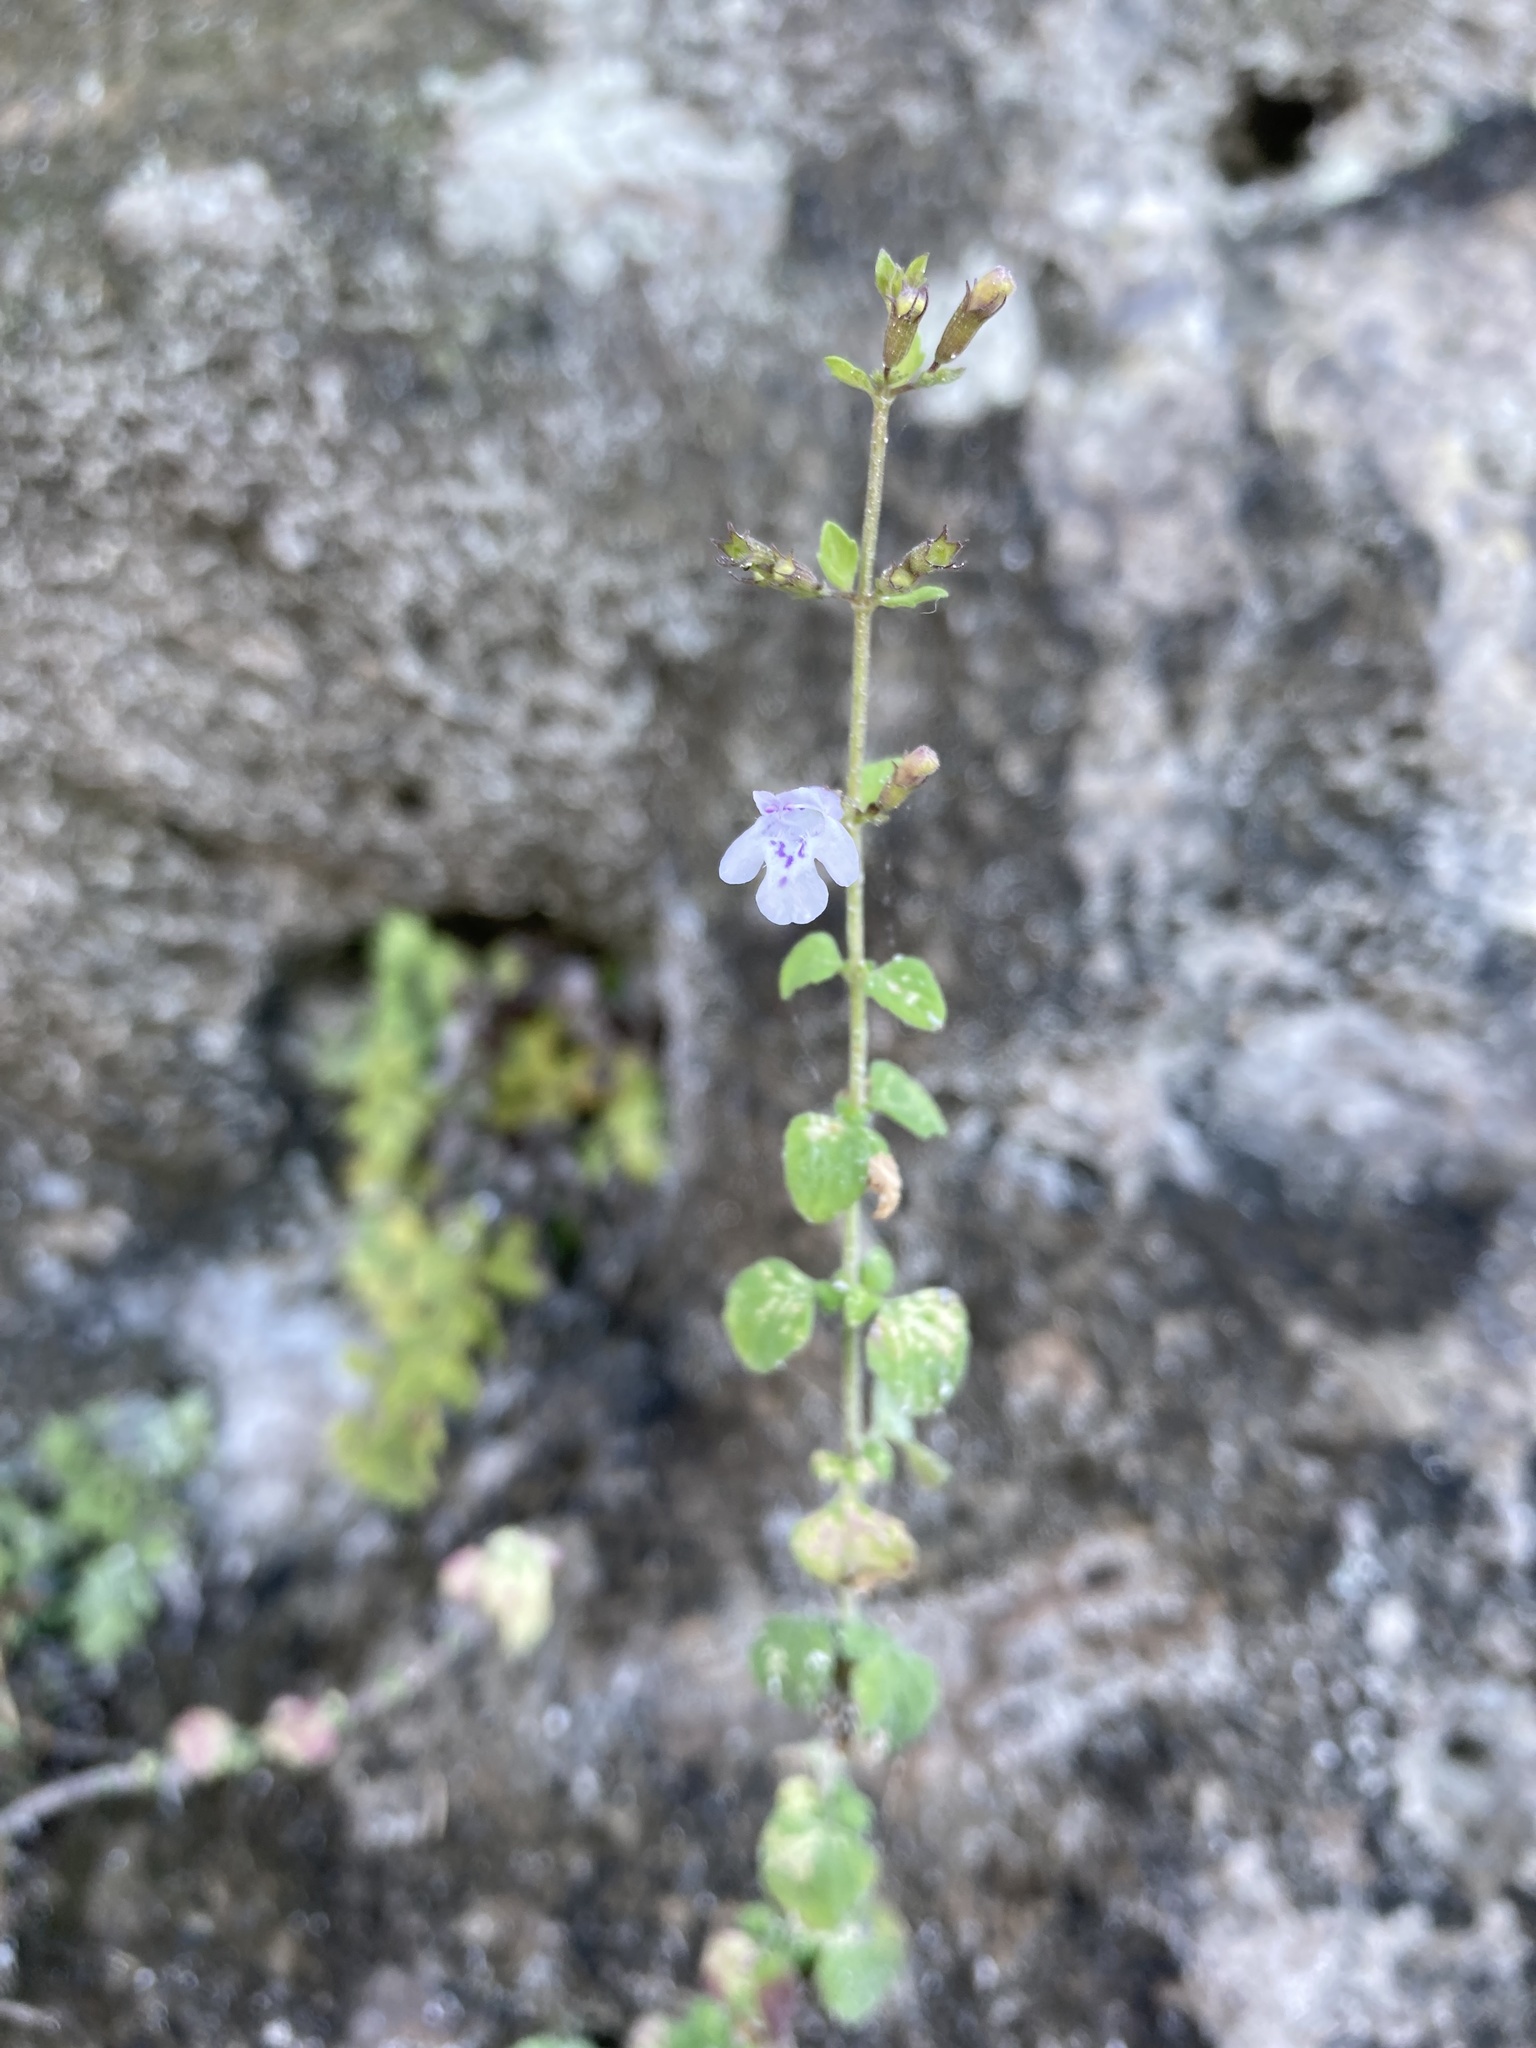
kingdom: Plantae
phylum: Tracheophyta
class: Magnoliopsida
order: Lamiales
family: Lamiaceae
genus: Clinopodium
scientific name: Clinopodium nepeta
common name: Lesser calamint
